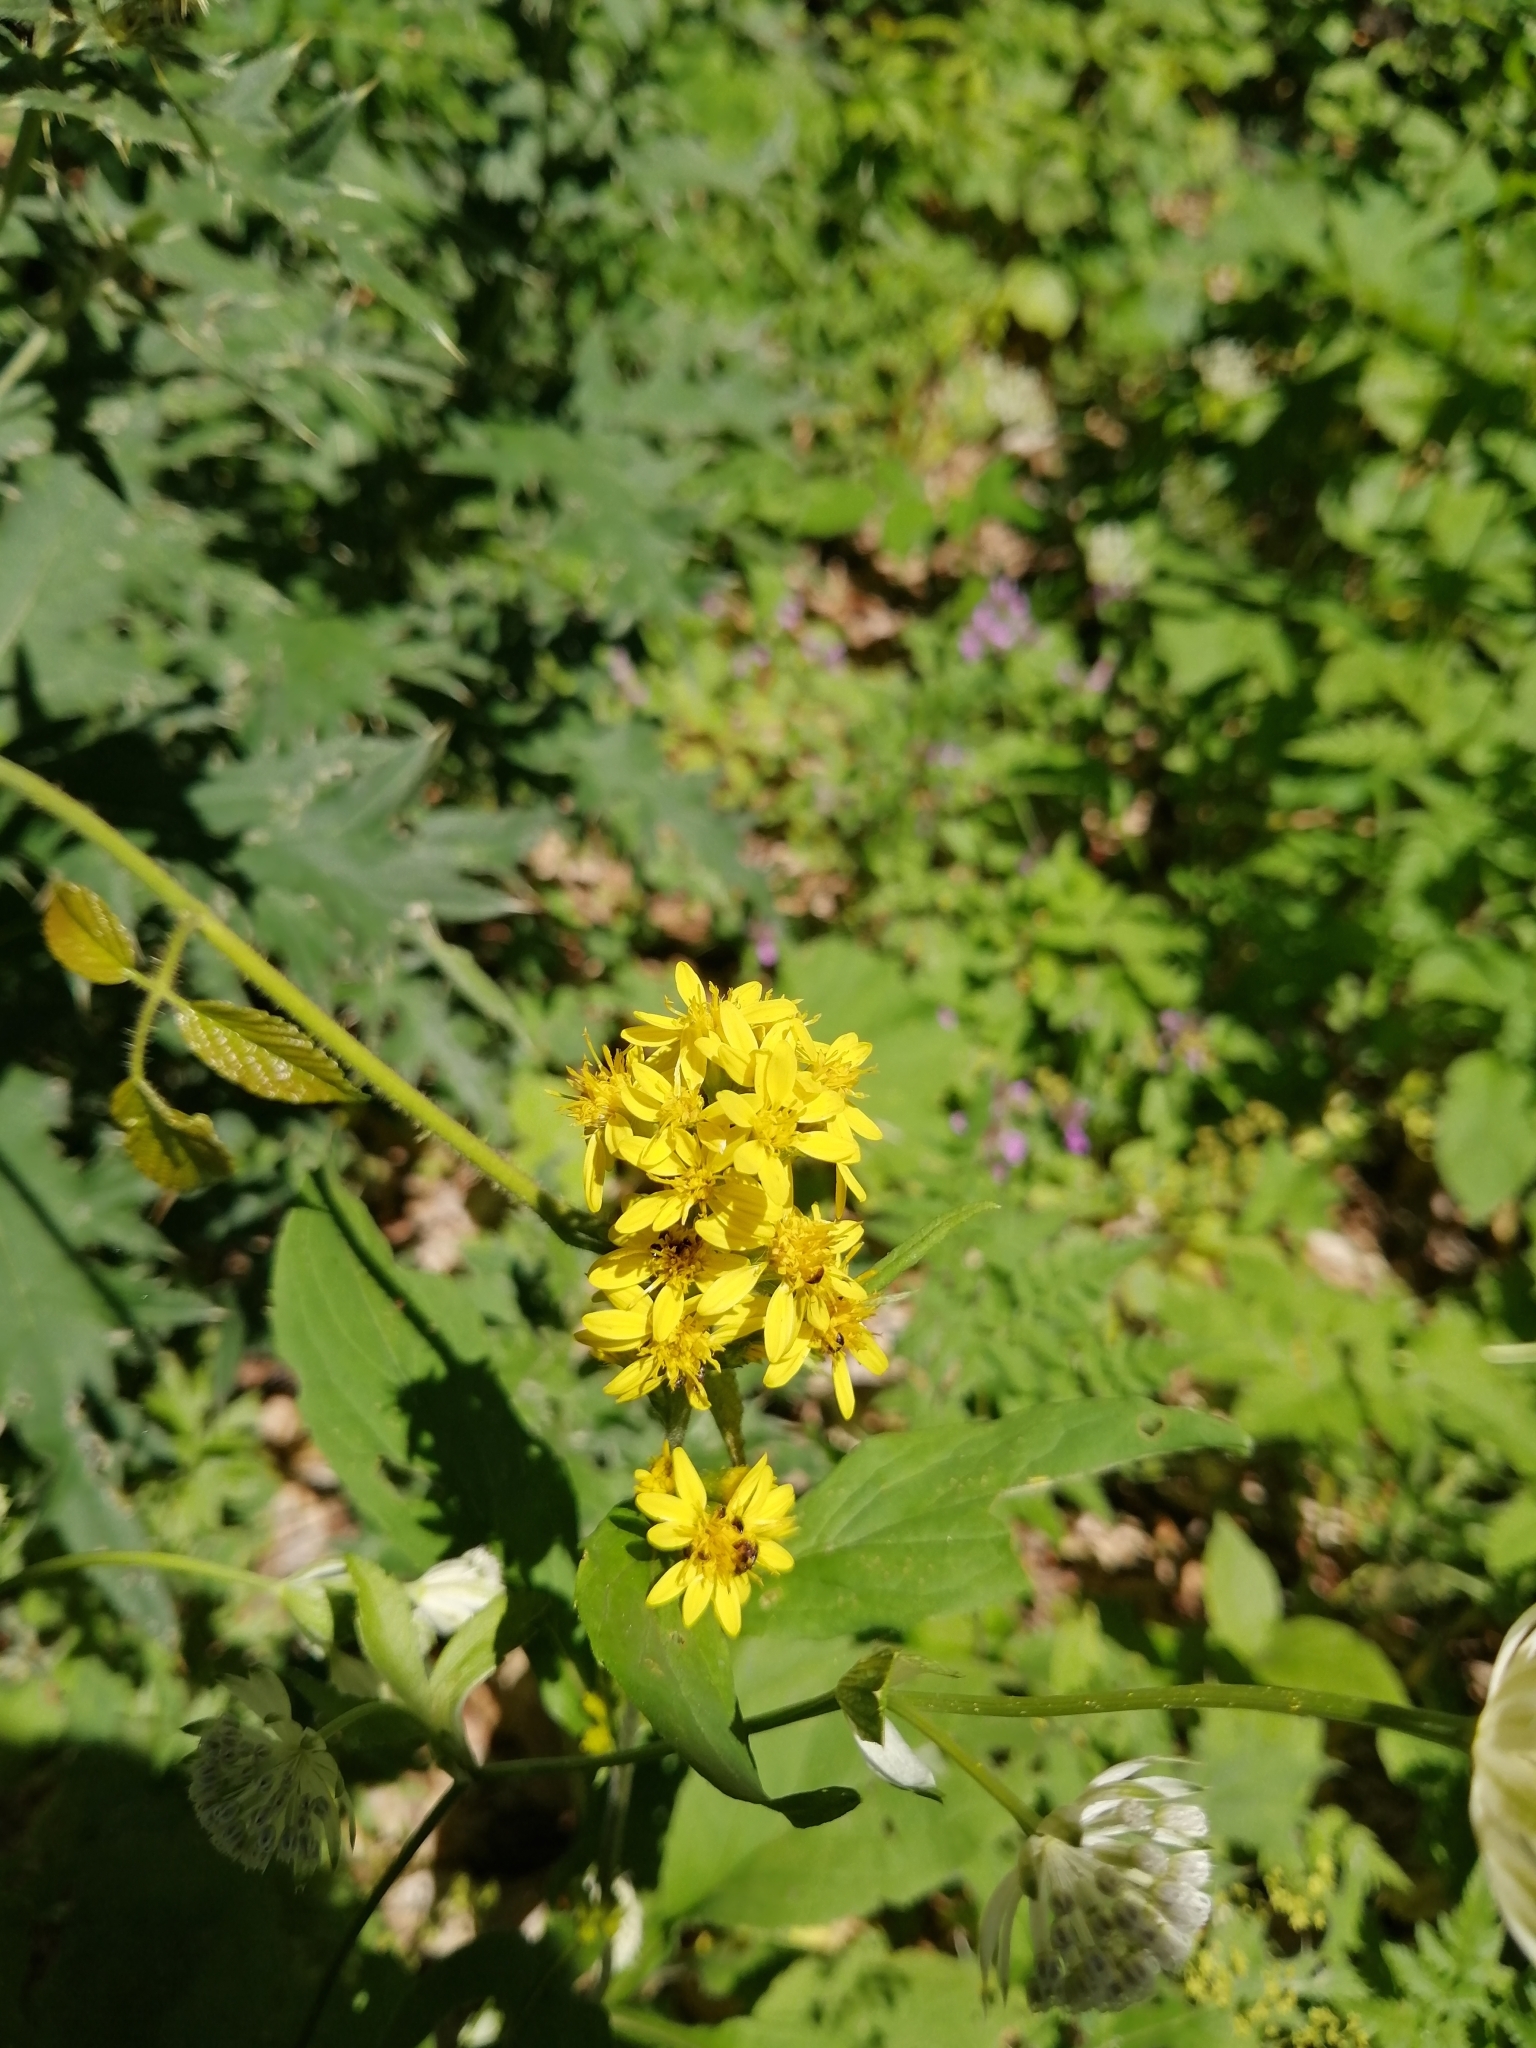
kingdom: Plantae
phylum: Tracheophyta
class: Magnoliopsida
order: Asterales
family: Asteraceae
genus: Solidago
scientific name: Solidago virgaurea
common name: Goldenrod
